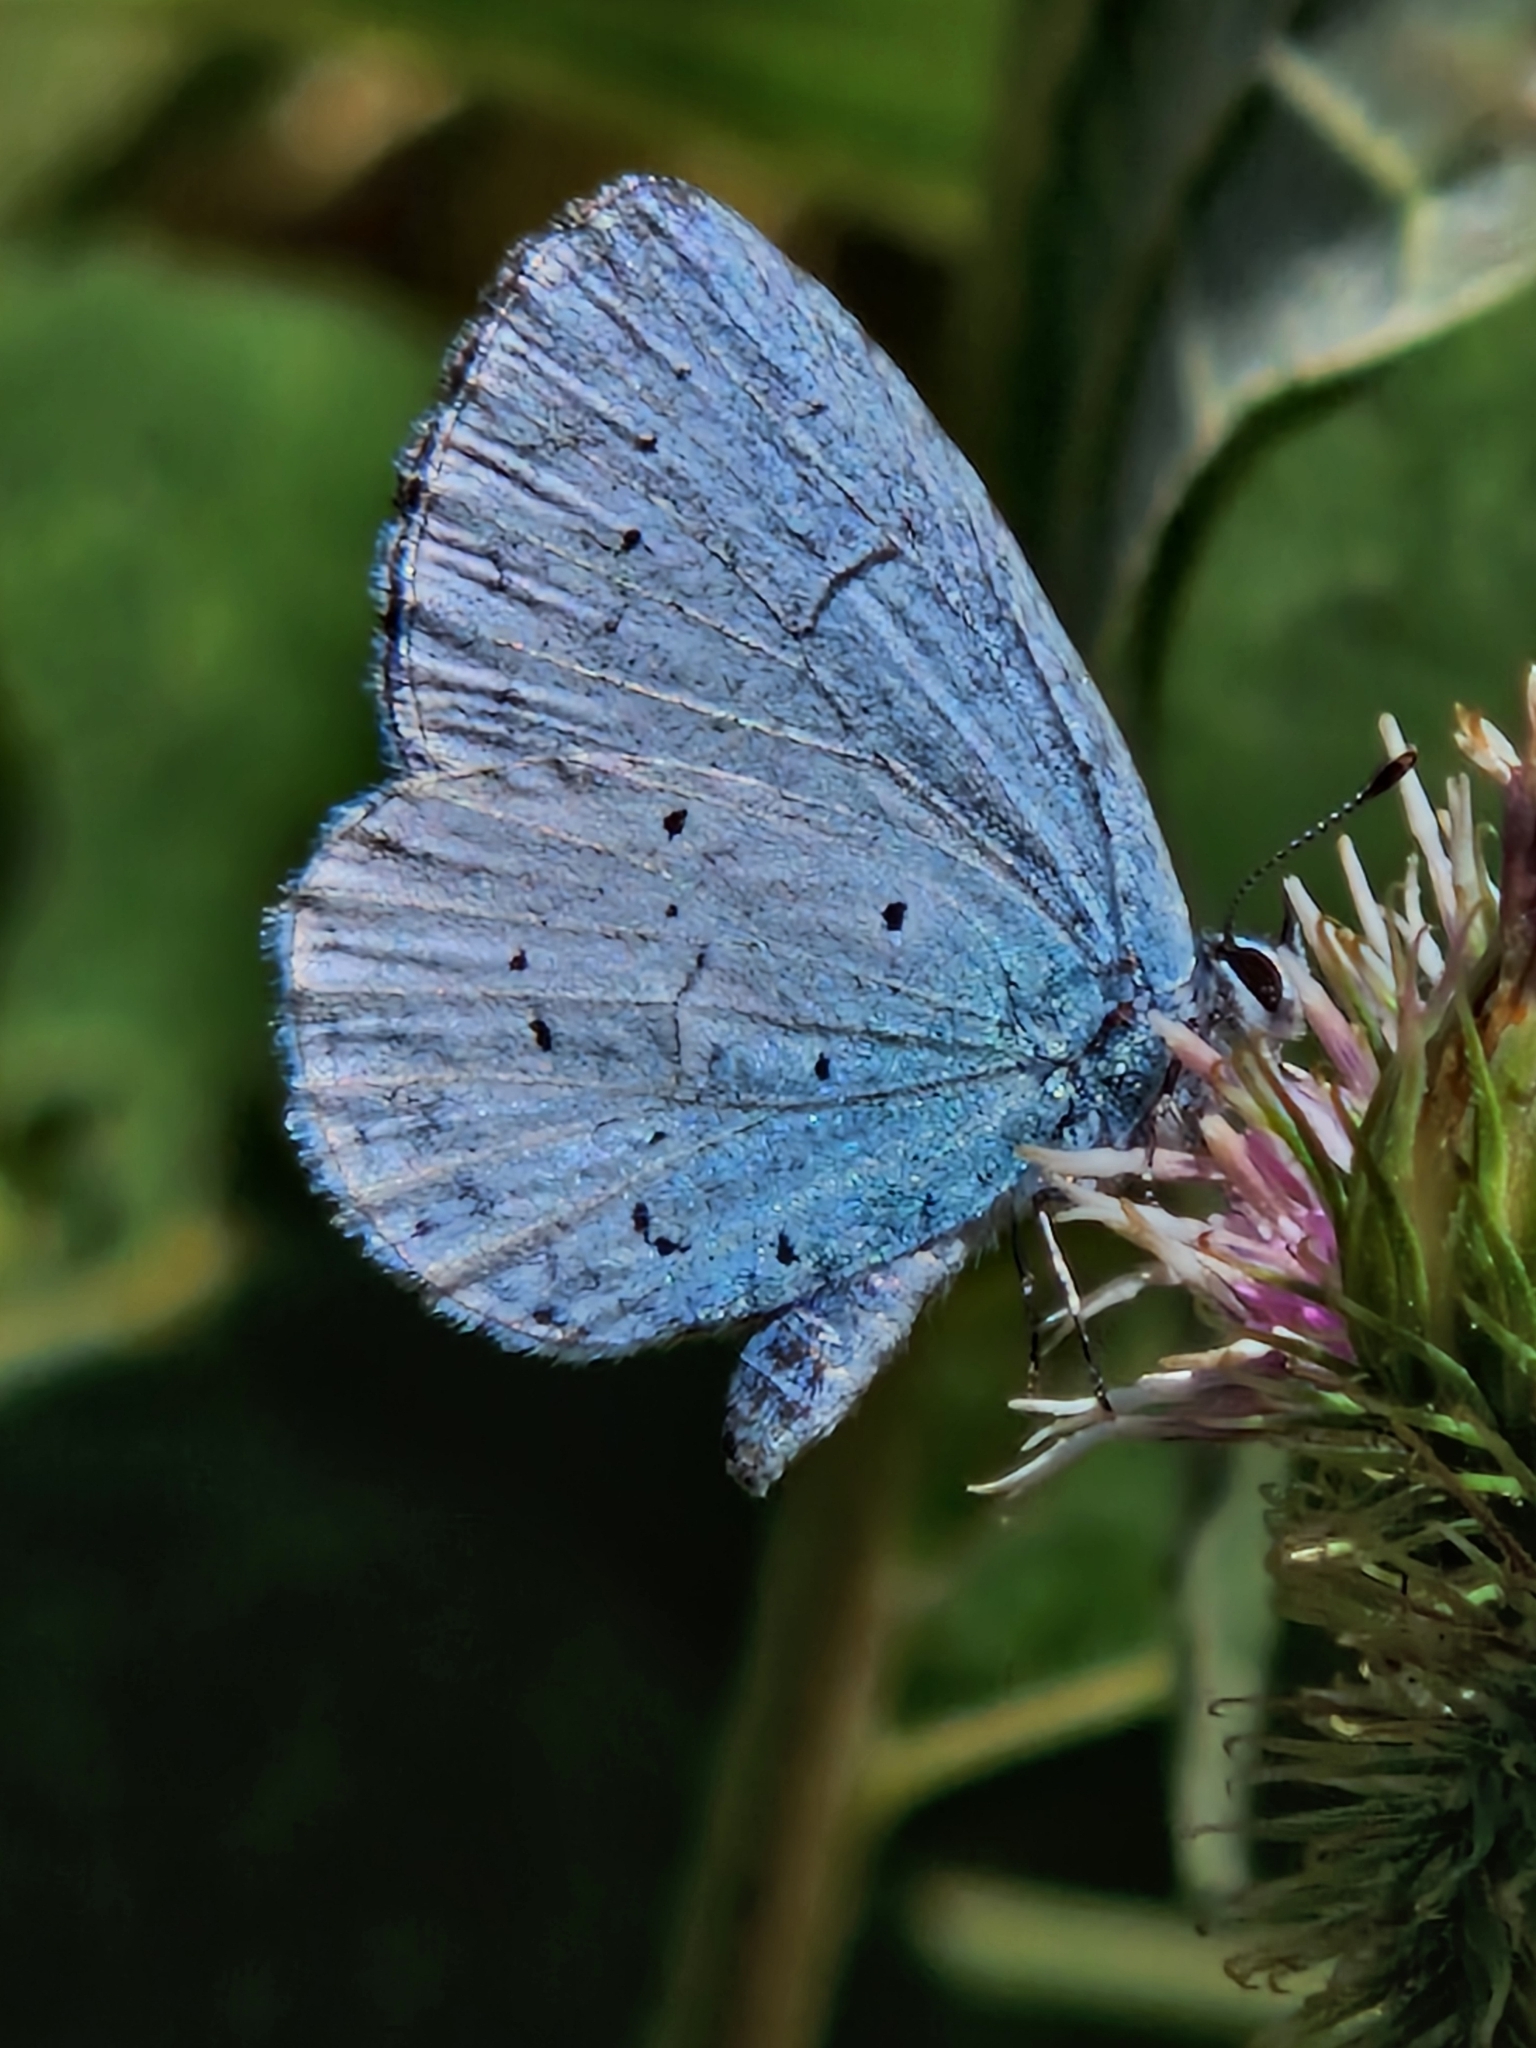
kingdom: Animalia
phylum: Arthropoda
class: Insecta
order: Lepidoptera
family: Lycaenidae
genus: Celastrina
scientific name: Celastrina argiolus
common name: Holly blue
